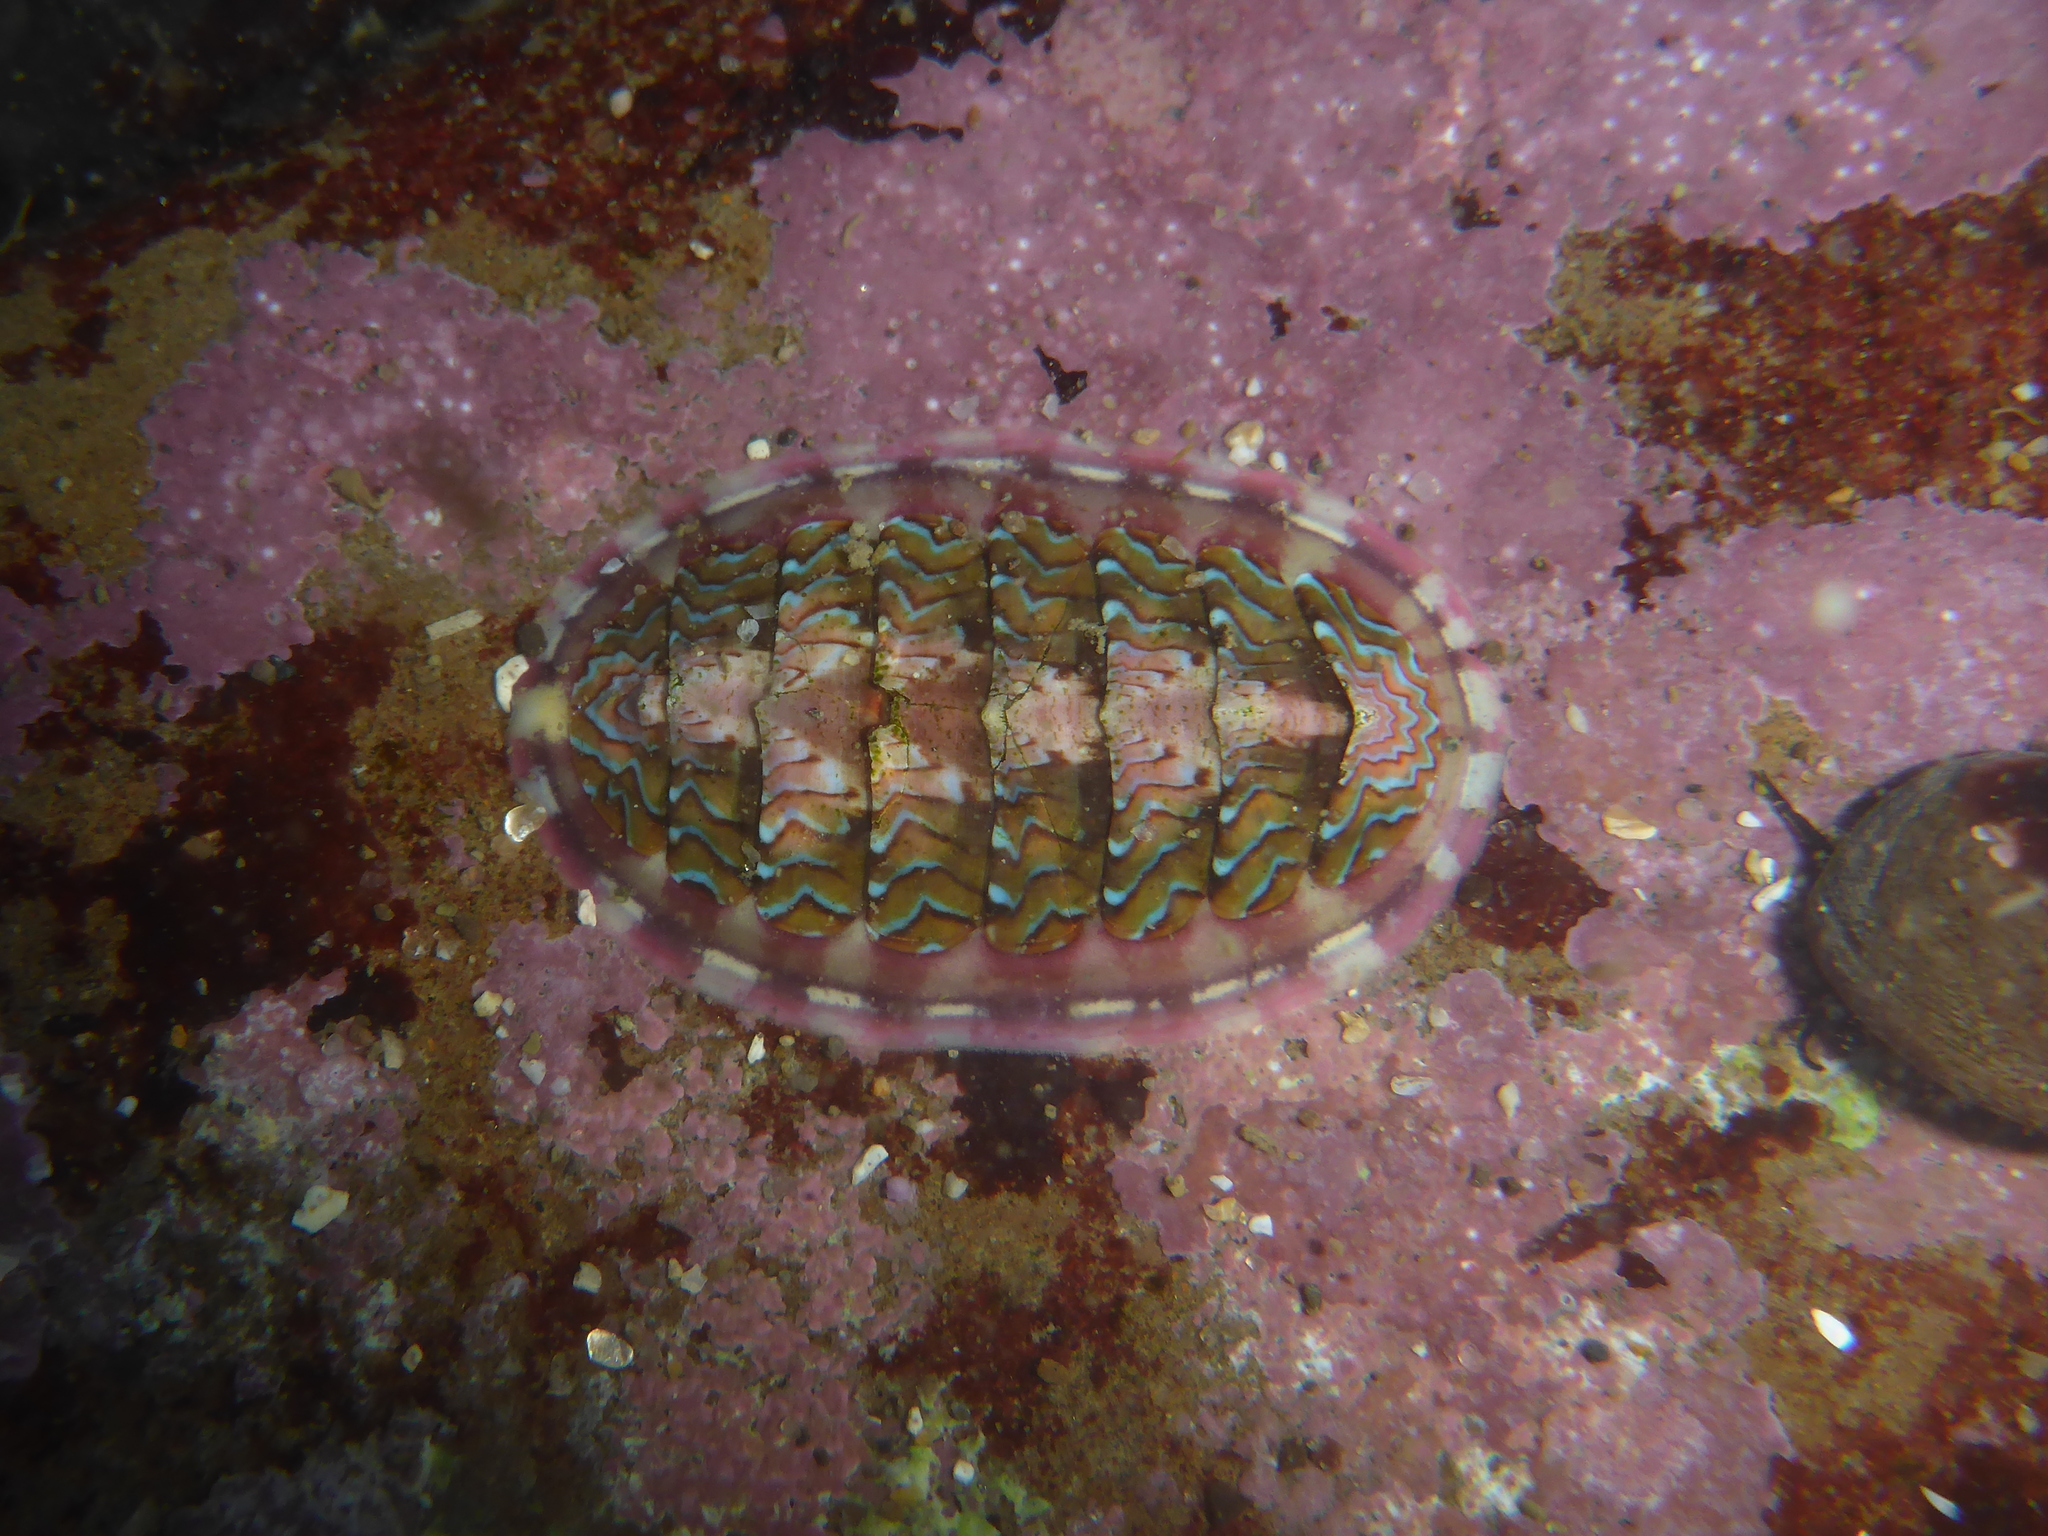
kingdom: Animalia
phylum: Mollusca
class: Polyplacophora
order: Chitonida
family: Tonicellidae
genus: Tonicella
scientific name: Tonicella lokii
